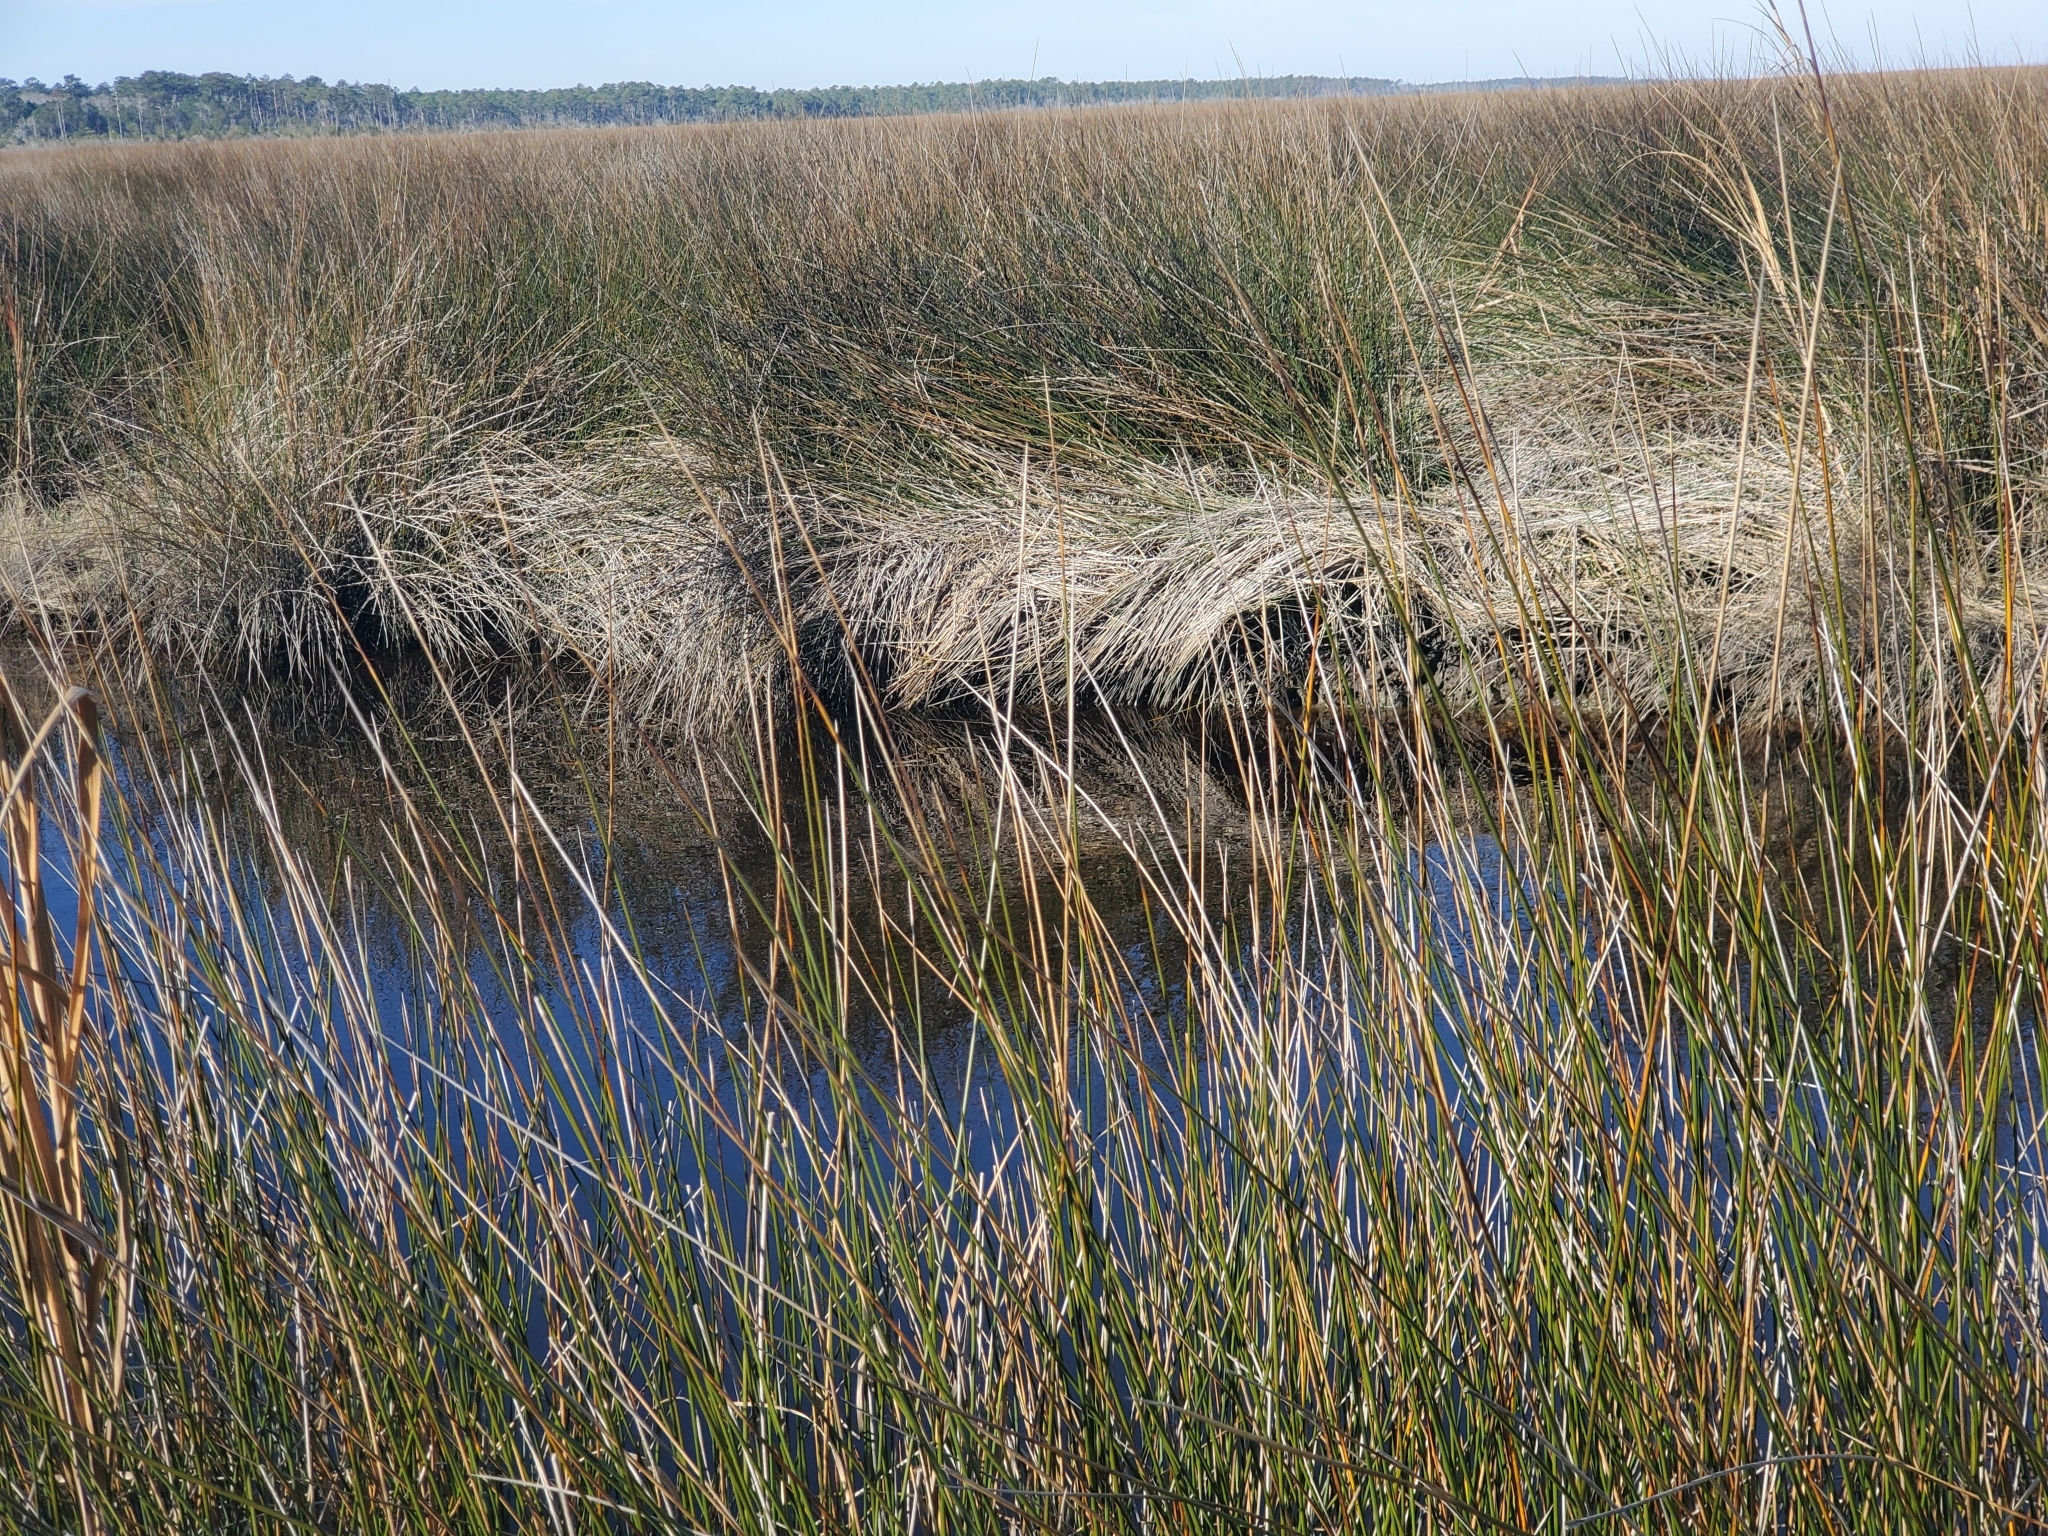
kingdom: Plantae
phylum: Tracheophyta
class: Liliopsida
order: Poales
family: Juncaceae
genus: Juncus
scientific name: Juncus roemerianus
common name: Roemer's rush
